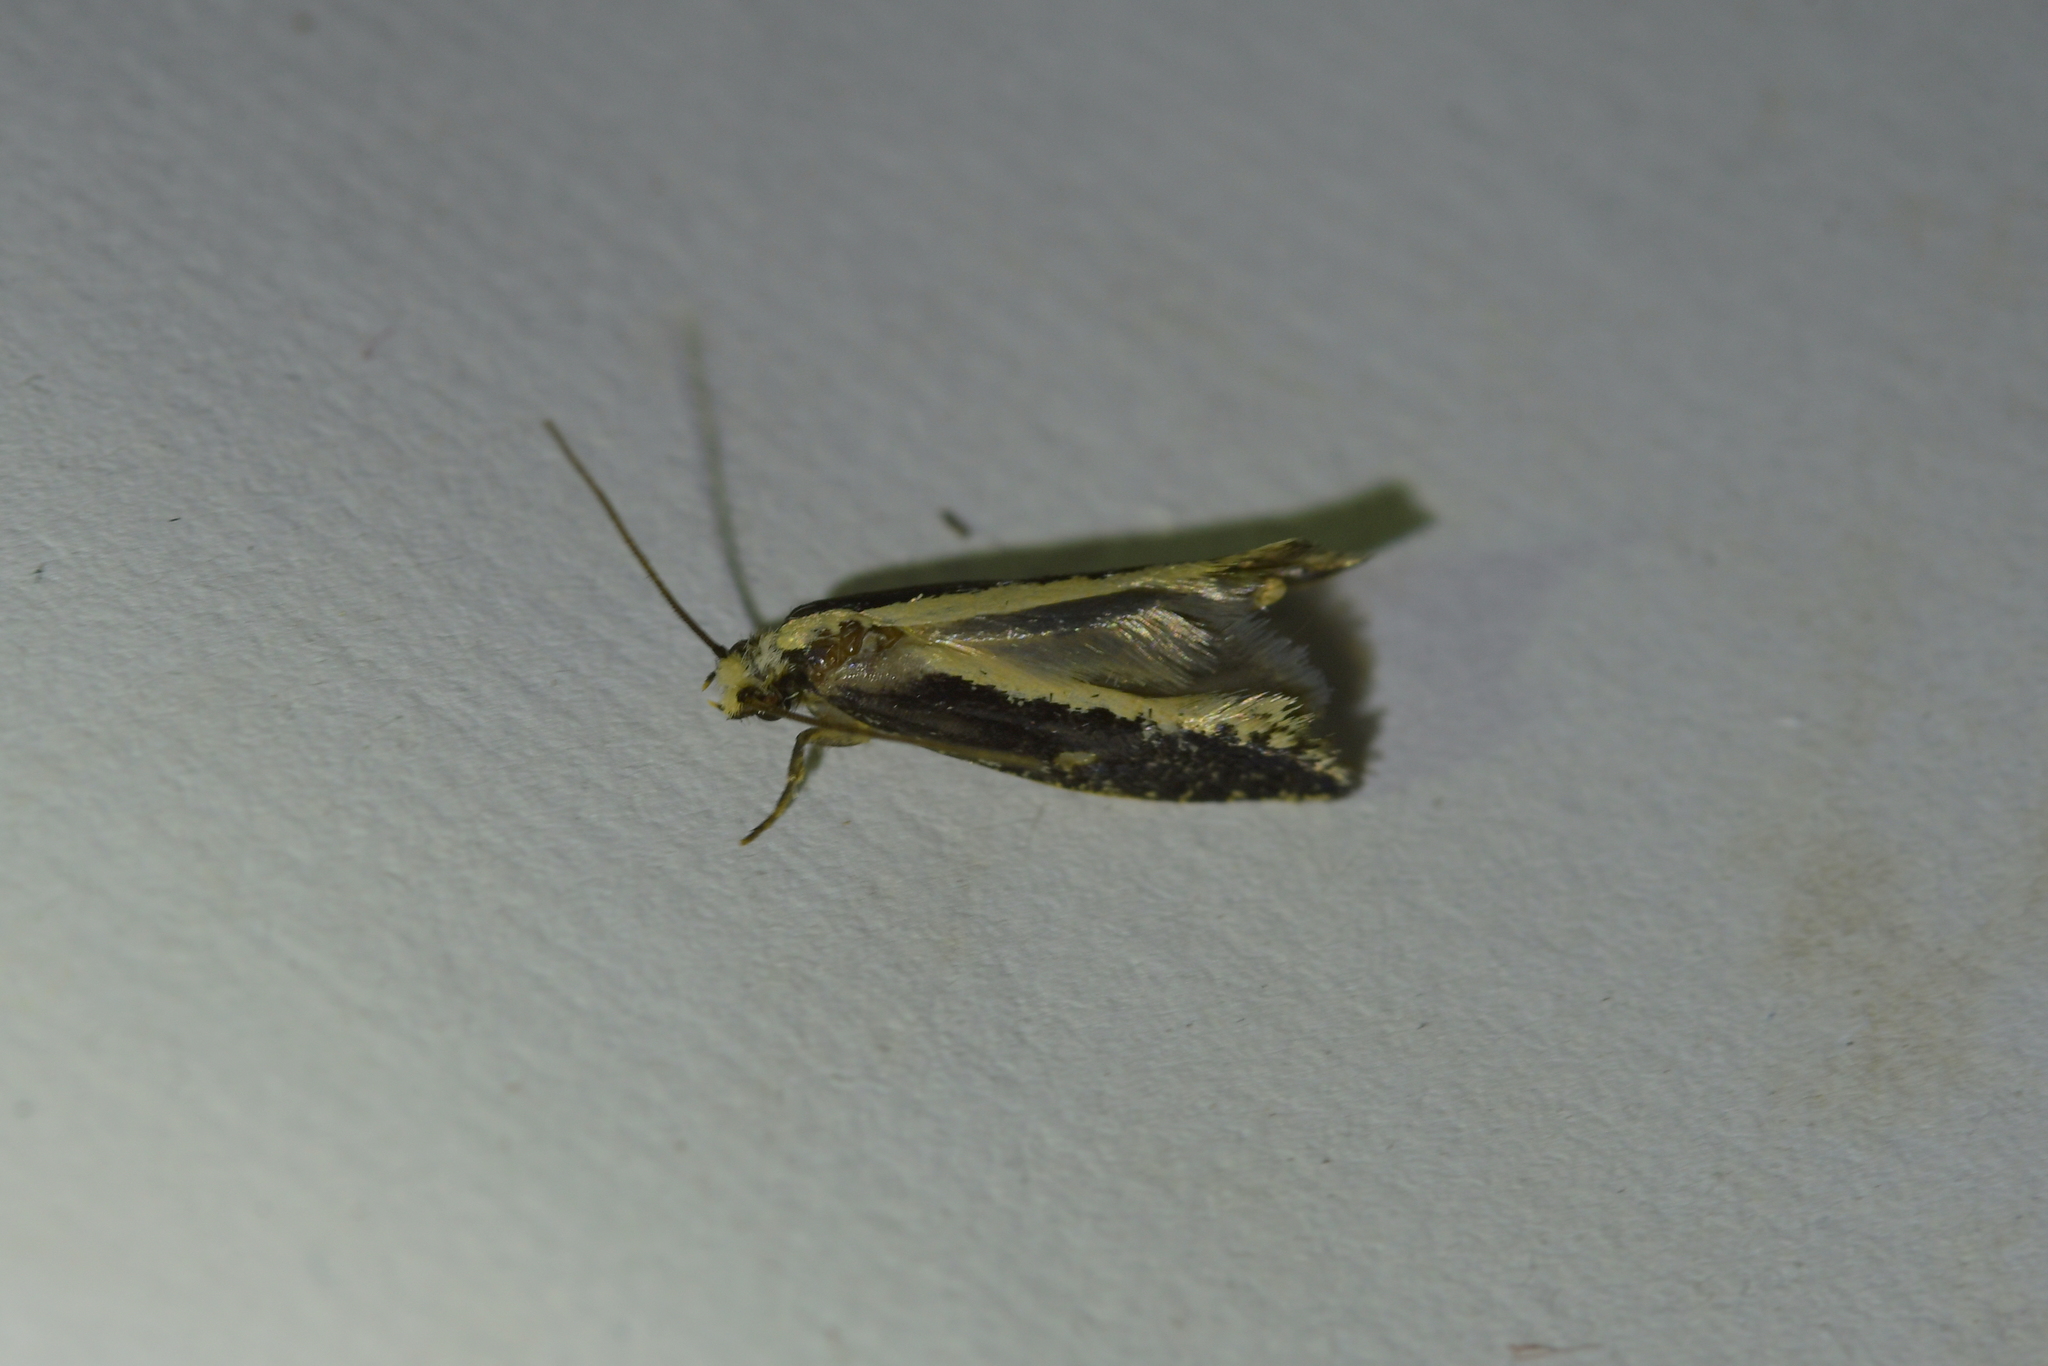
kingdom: Animalia
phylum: Arthropoda
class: Insecta
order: Lepidoptera
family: Tineidae
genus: Monopis
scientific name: Monopis ethelella
